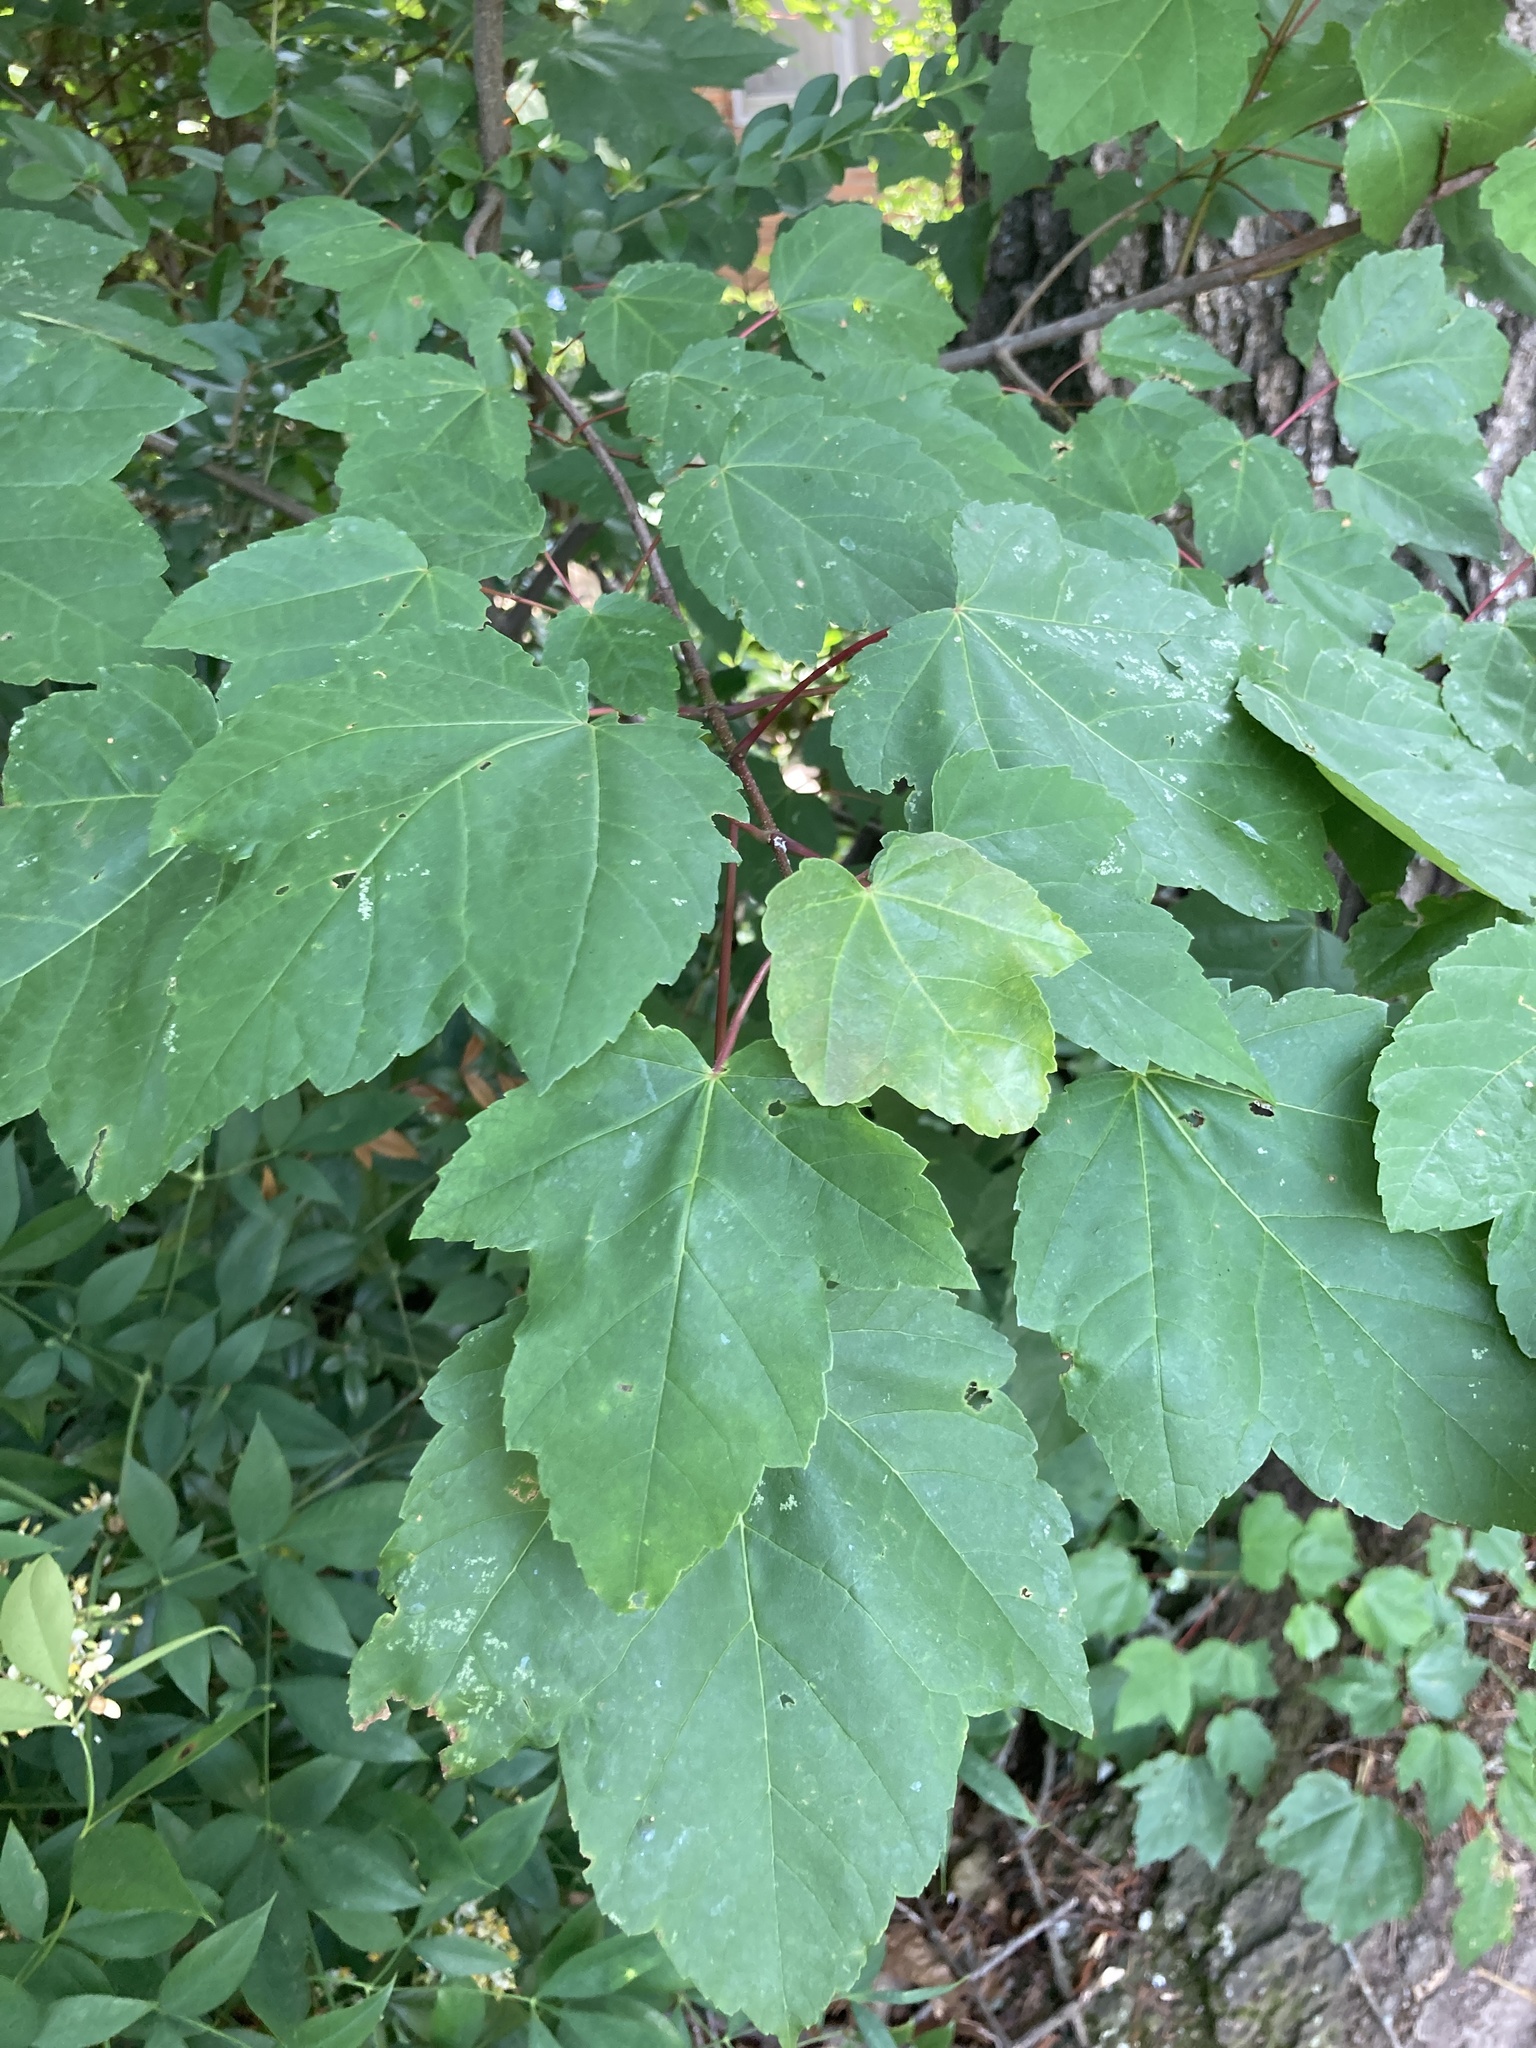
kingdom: Plantae
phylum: Tracheophyta
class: Magnoliopsida
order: Sapindales
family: Sapindaceae
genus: Acer
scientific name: Acer rubrum
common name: Red maple
